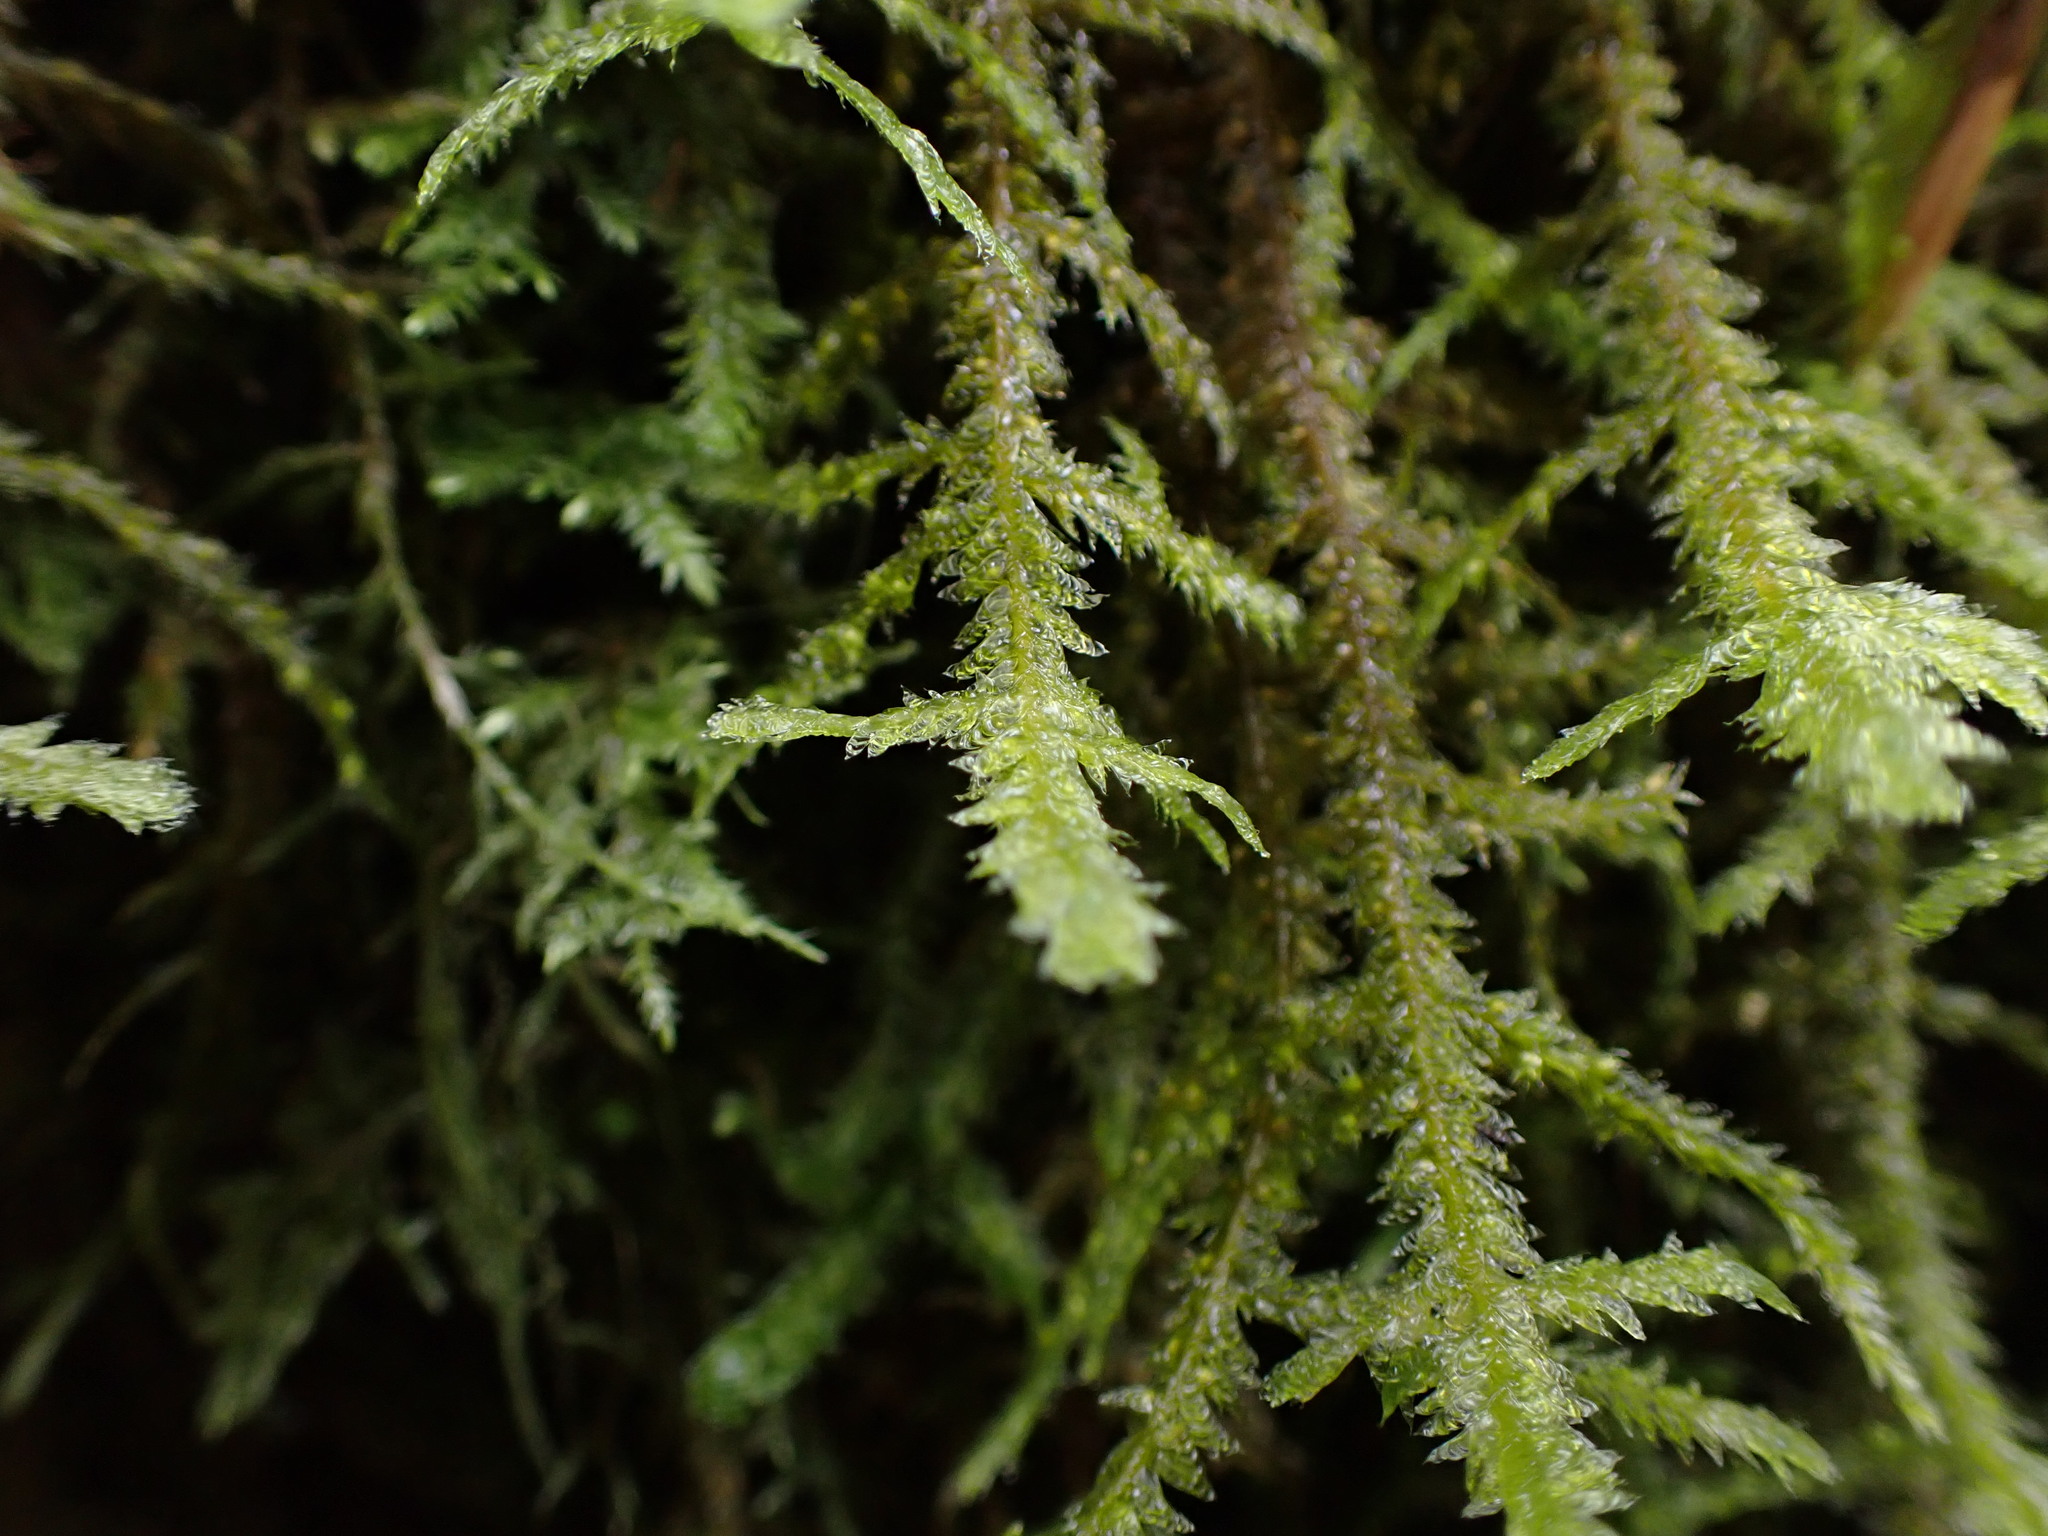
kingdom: Plantae
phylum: Bryophyta
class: Bryopsida
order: Hypnales
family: Neckeraceae
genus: Neckera
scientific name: Neckera douglasii
